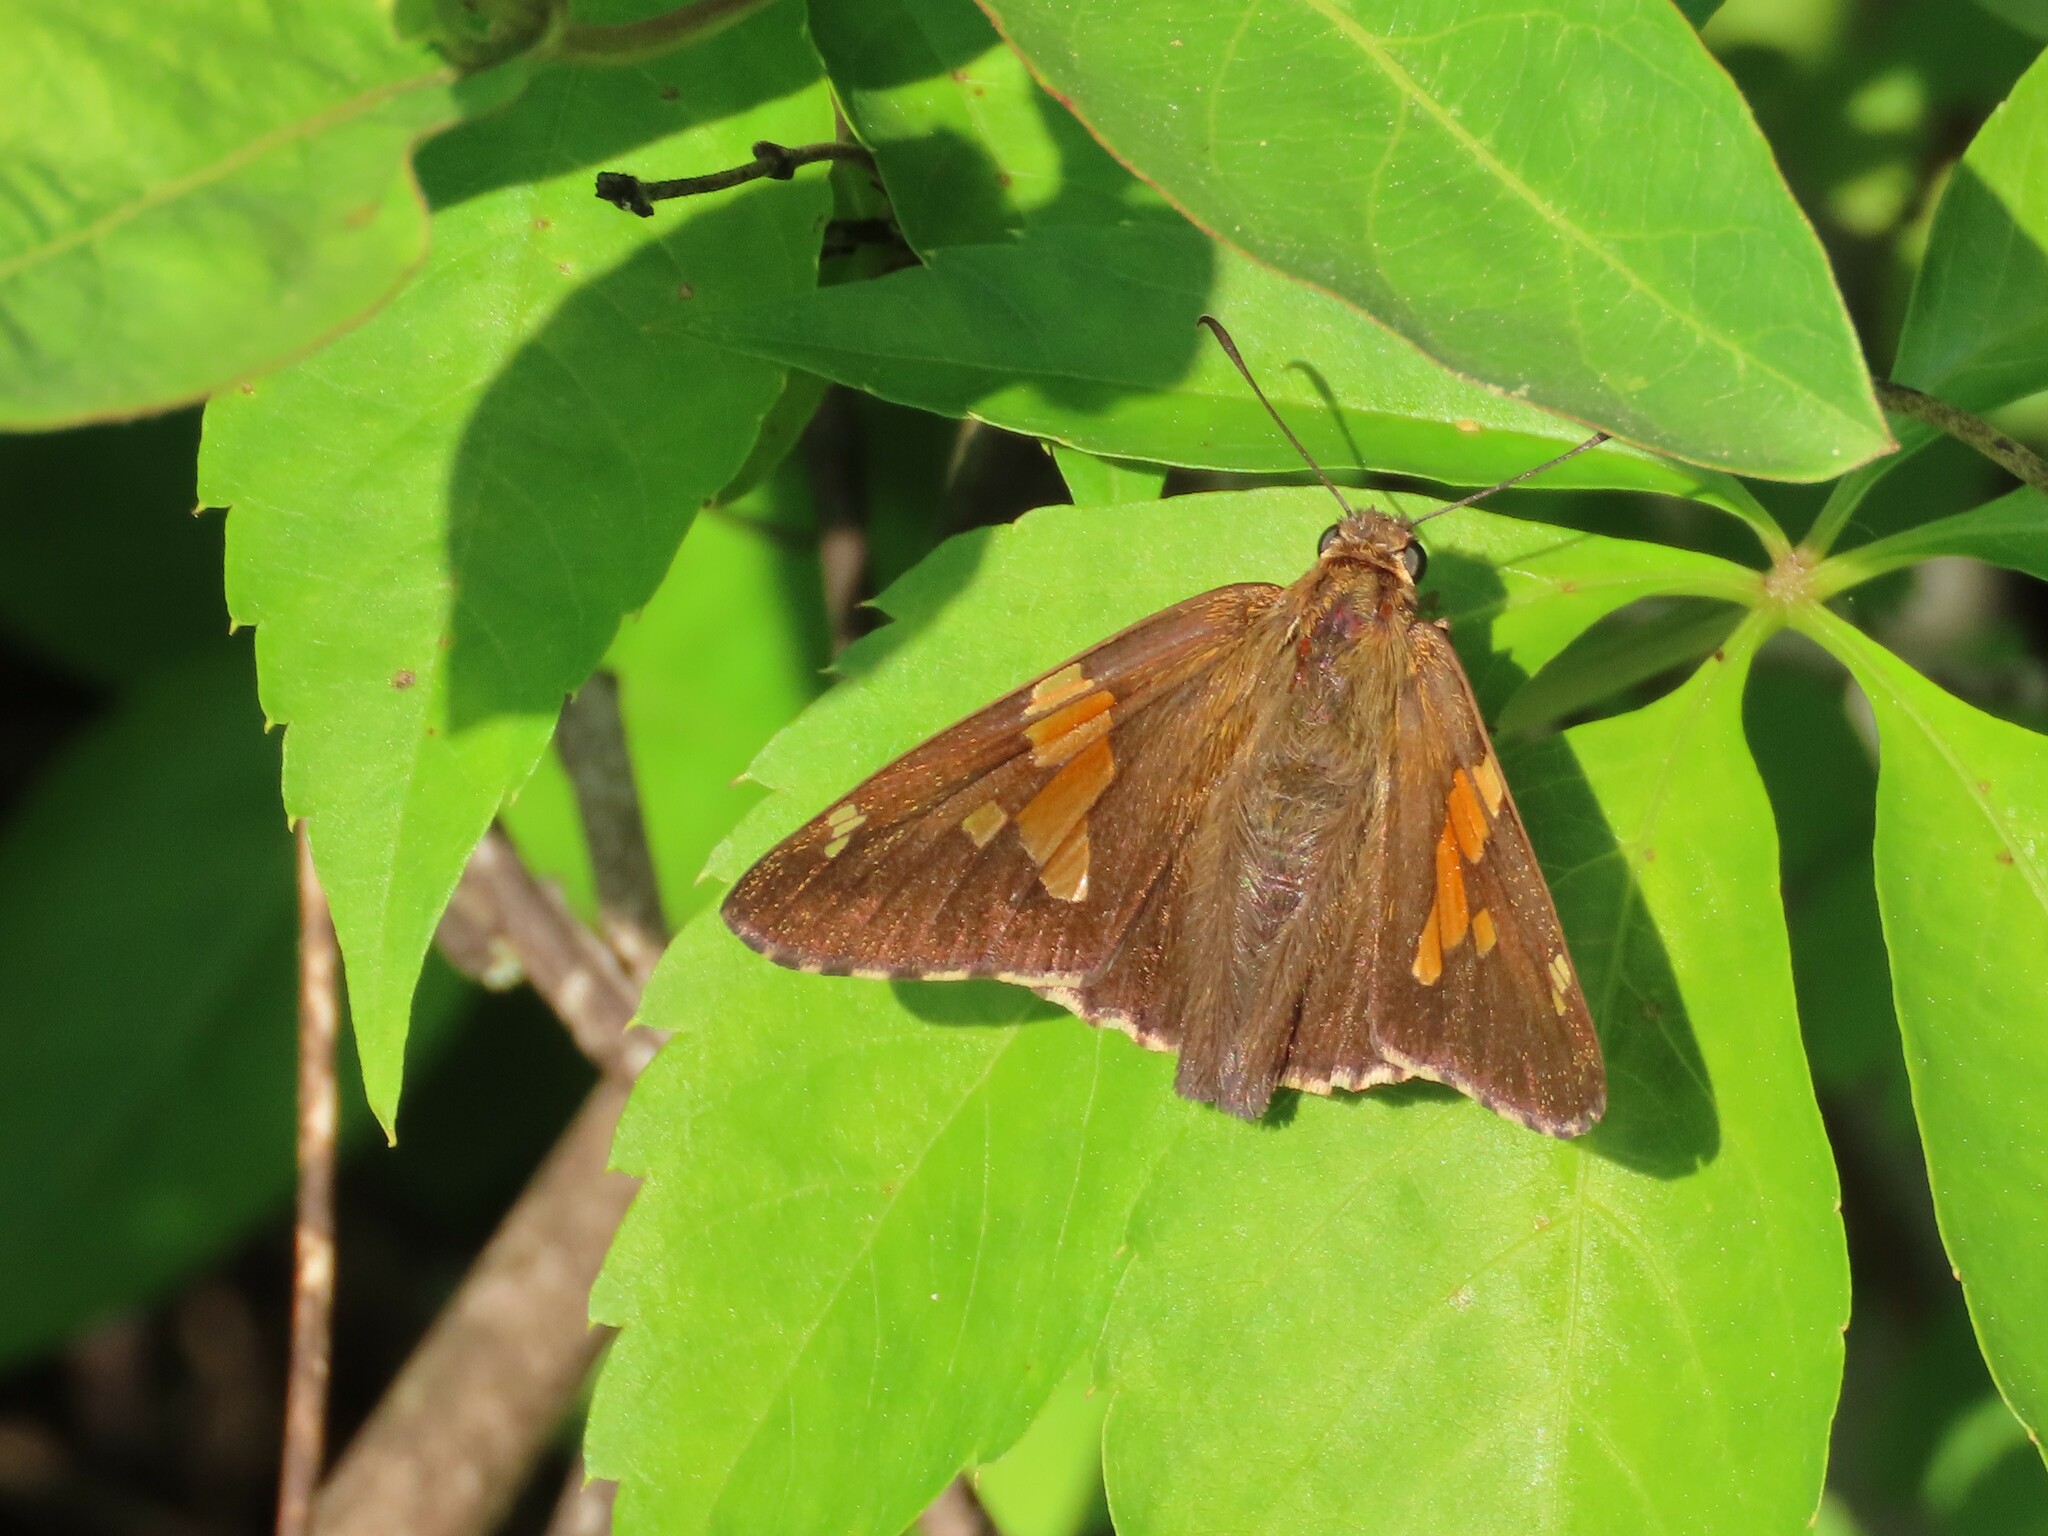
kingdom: Animalia
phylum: Arthropoda
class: Insecta
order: Lepidoptera
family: Hesperiidae
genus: Epargyreus
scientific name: Epargyreus clarus
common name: Silver-spotted skipper
